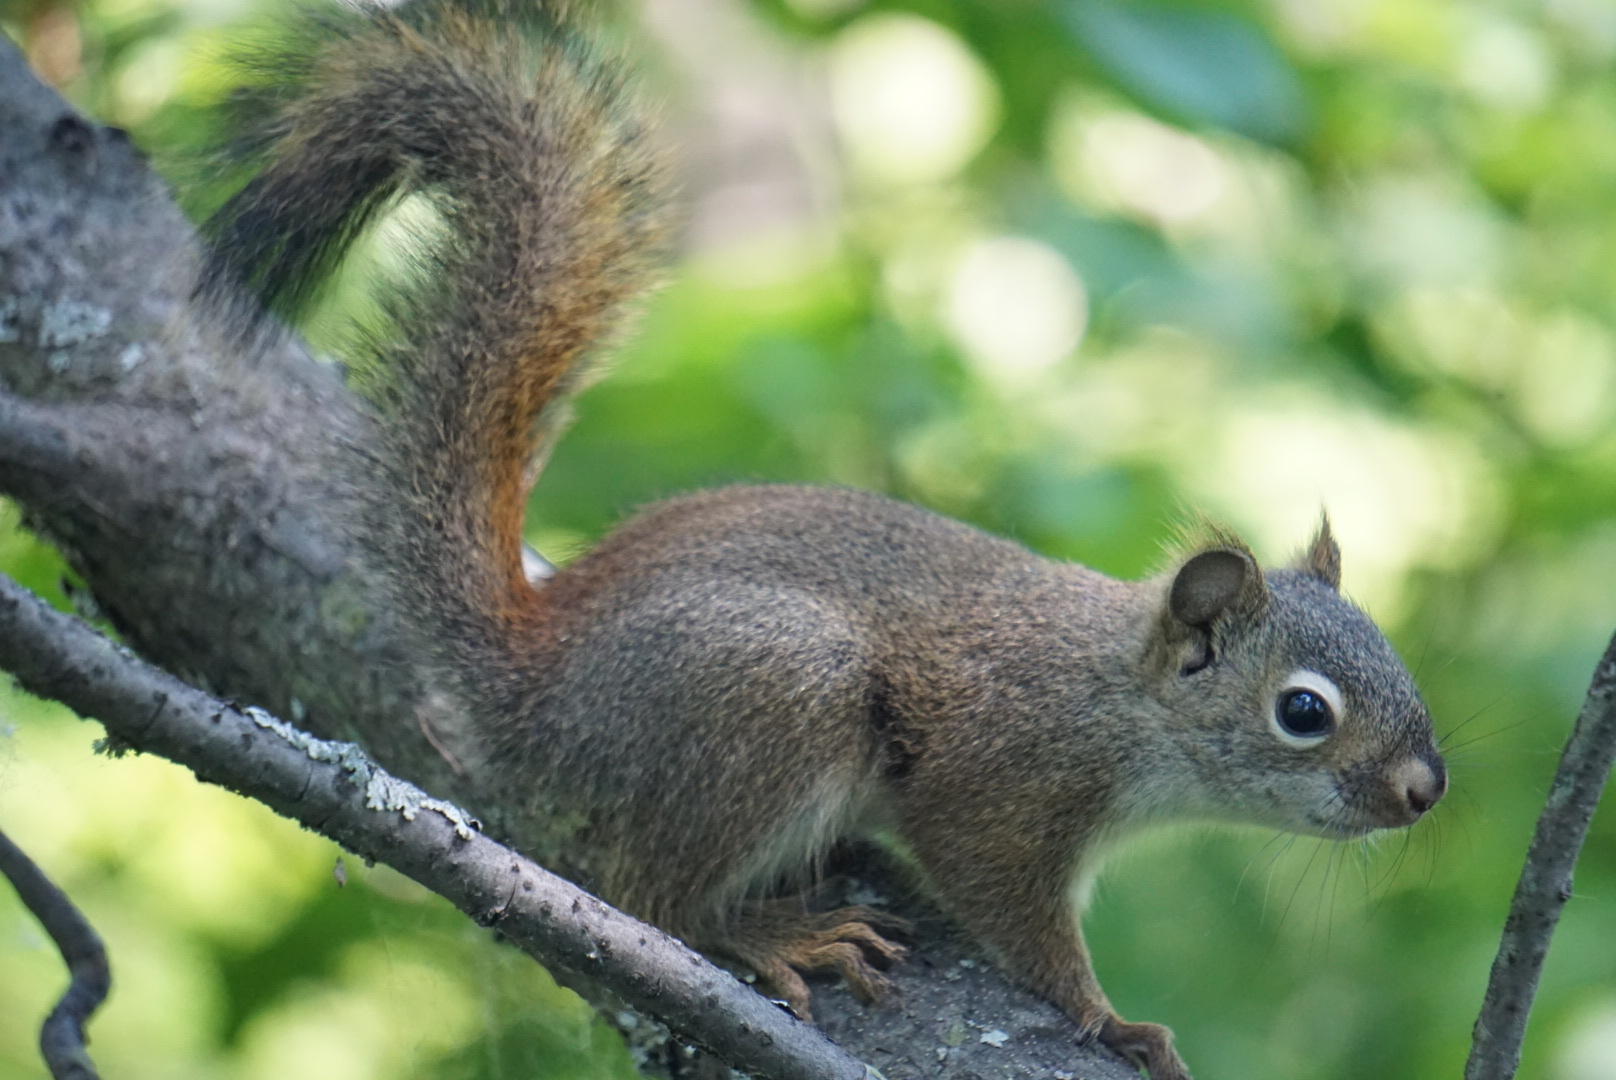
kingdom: Animalia
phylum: Chordata
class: Mammalia
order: Rodentia
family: Sciuridae
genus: Tamiasciurus
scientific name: Tamiasciurus hudsonicus
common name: Red squirrel
